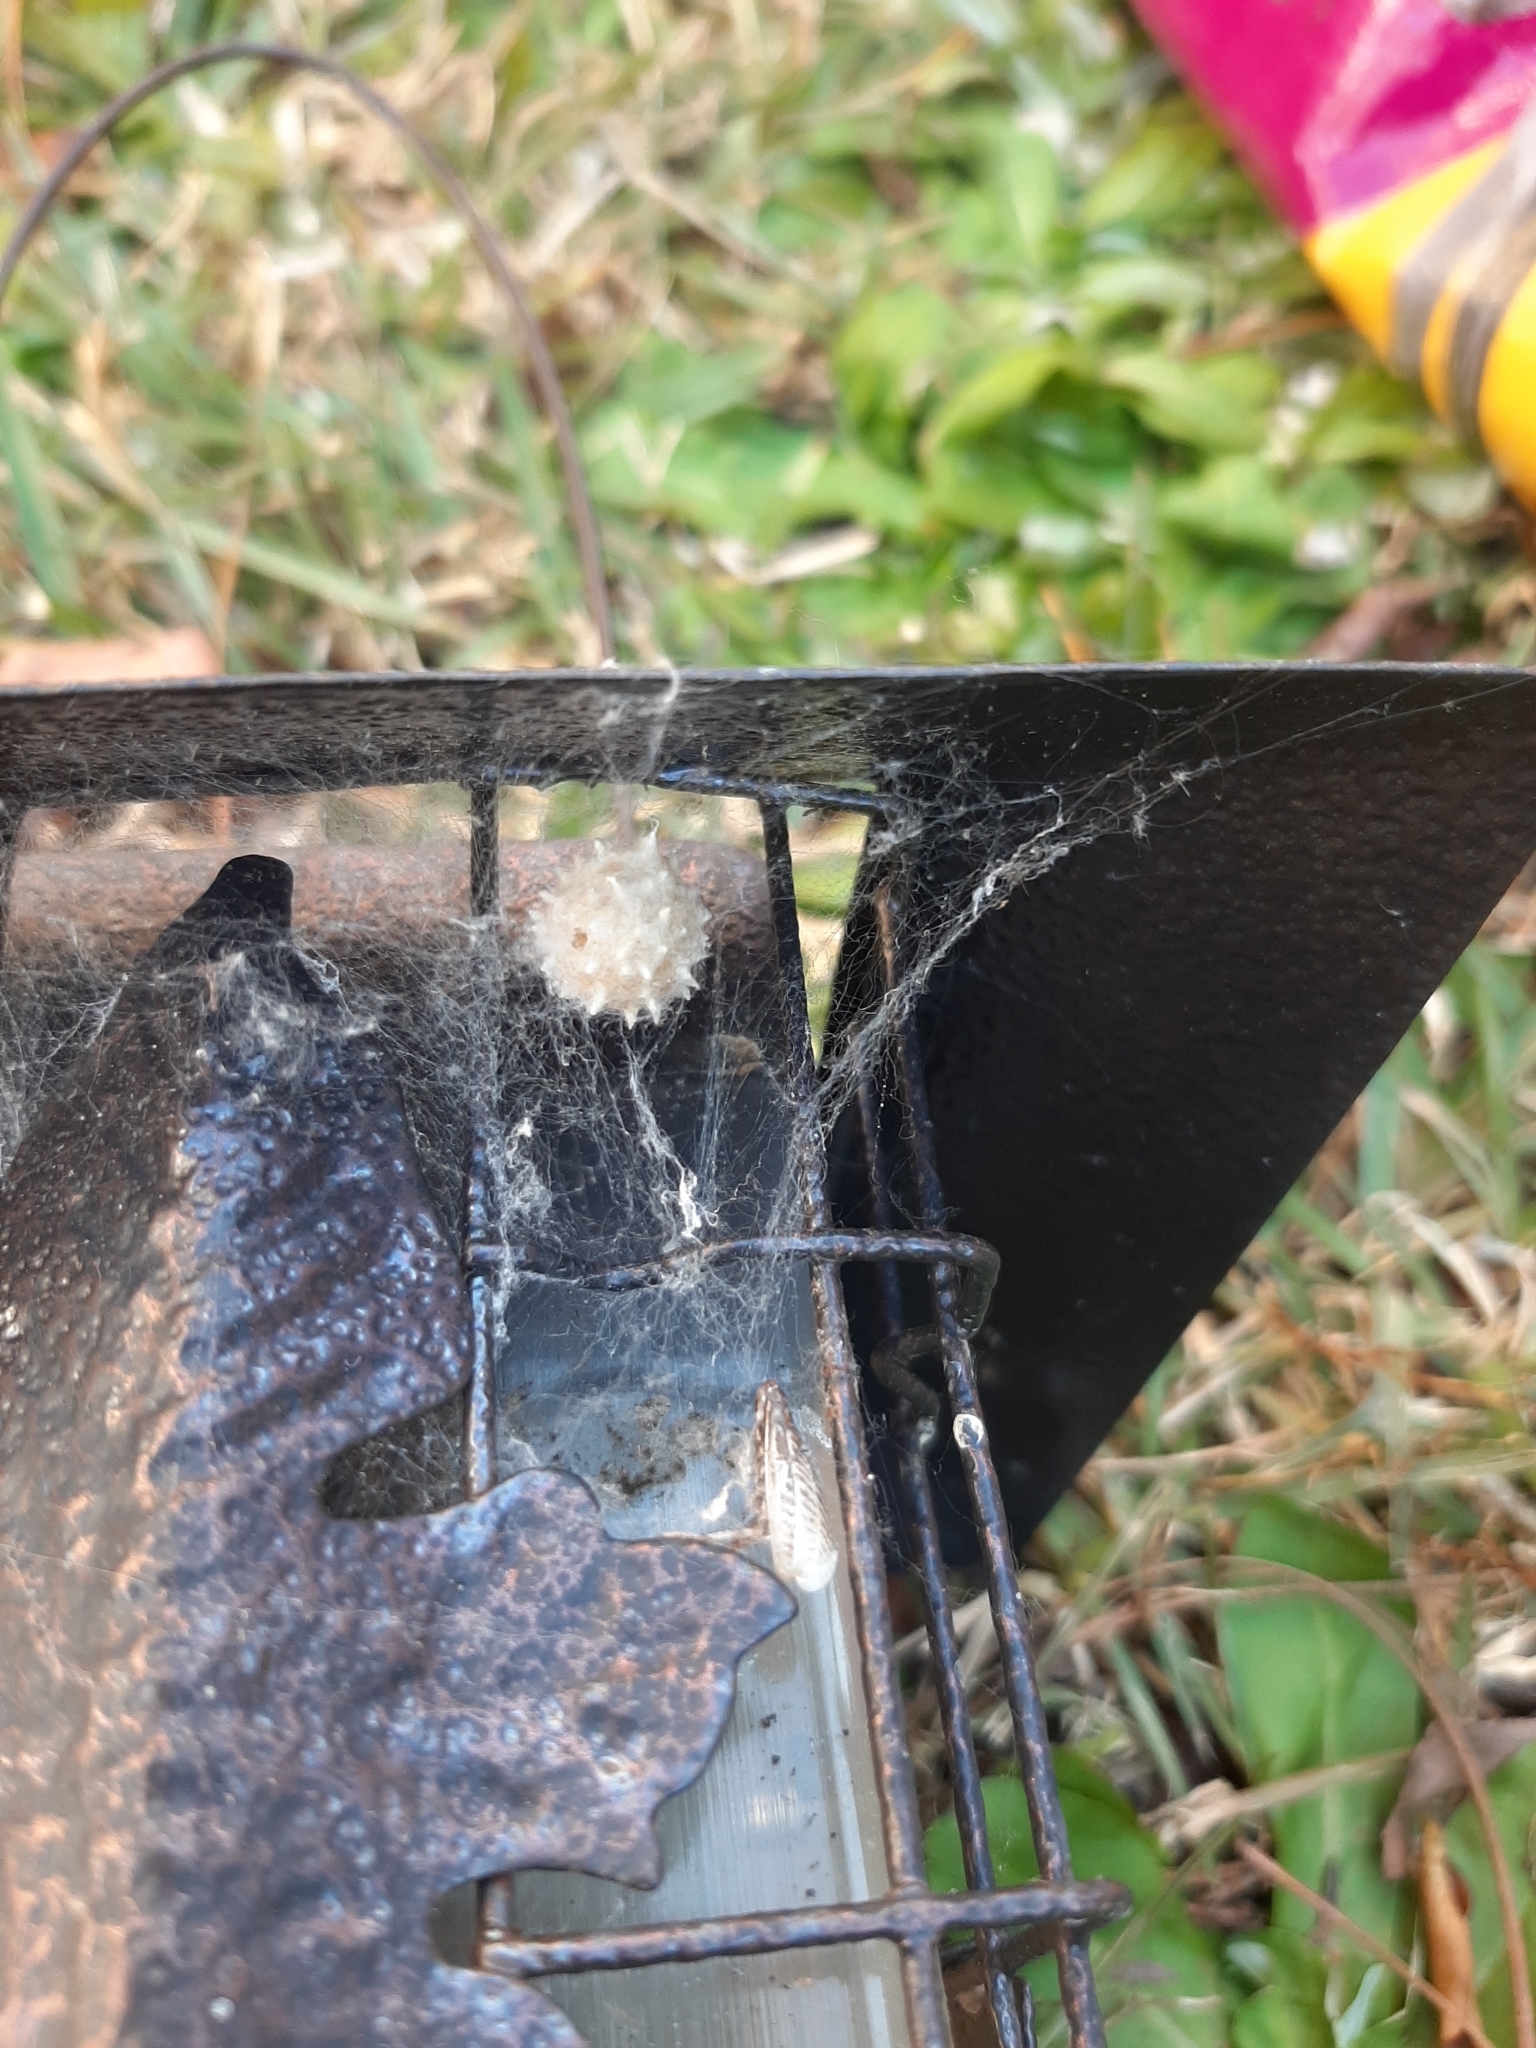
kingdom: Animalia
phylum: Arthropoda
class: Arachnida
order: Araneae
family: Theridiidae
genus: Latrodectus
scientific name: Latrodectus geometricus
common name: Brown widow spider
